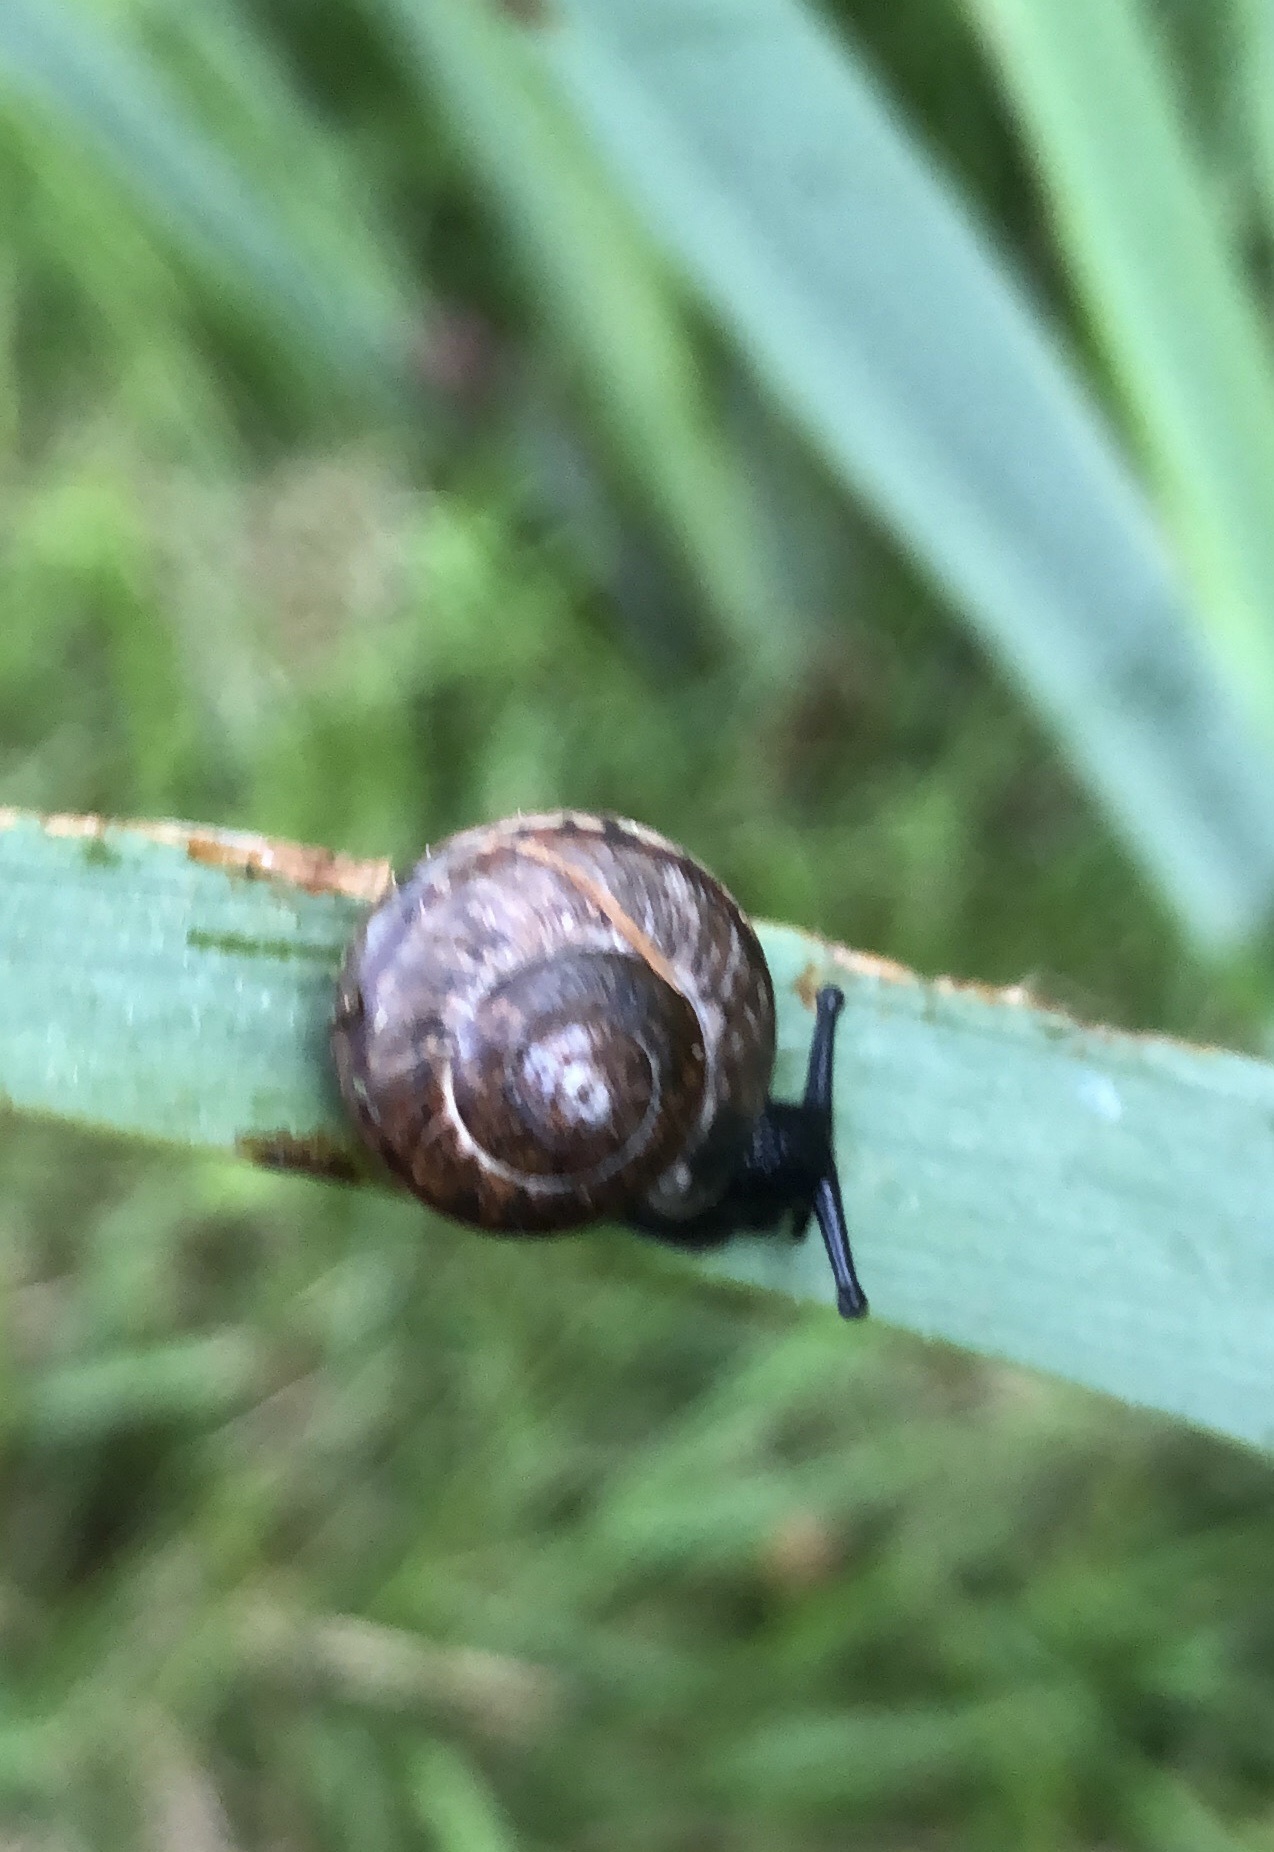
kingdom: Animalia
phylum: Mollusca
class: Gastropoda
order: Stylommatophora
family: Helicidae
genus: Arianta
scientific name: Arianta arbustorum
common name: Copse snail
